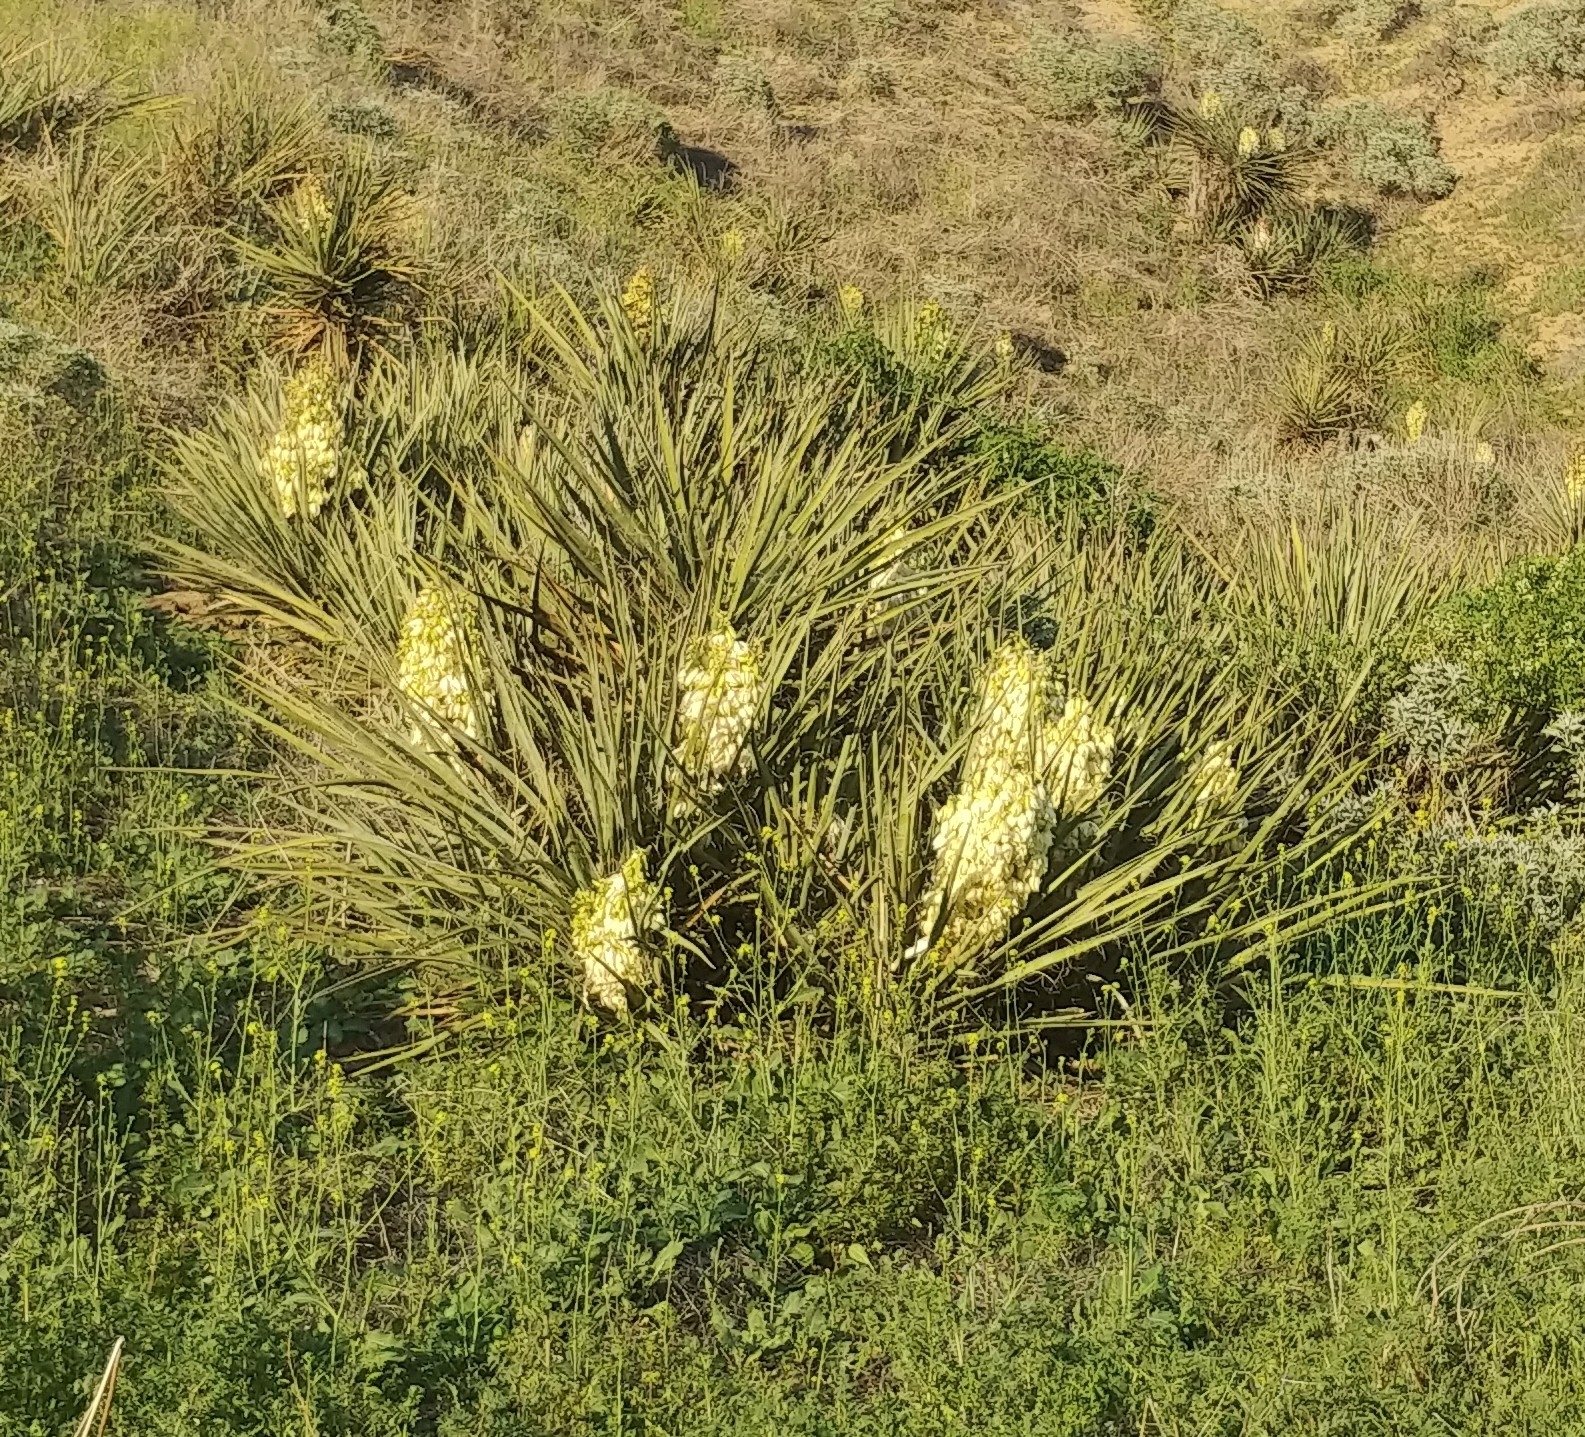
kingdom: Plantae
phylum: Tracheophyta
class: Liliopsida
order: Asparagales
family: Asparagaceae
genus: Yucca
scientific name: Yucca schidigera
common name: Mojave yucca
